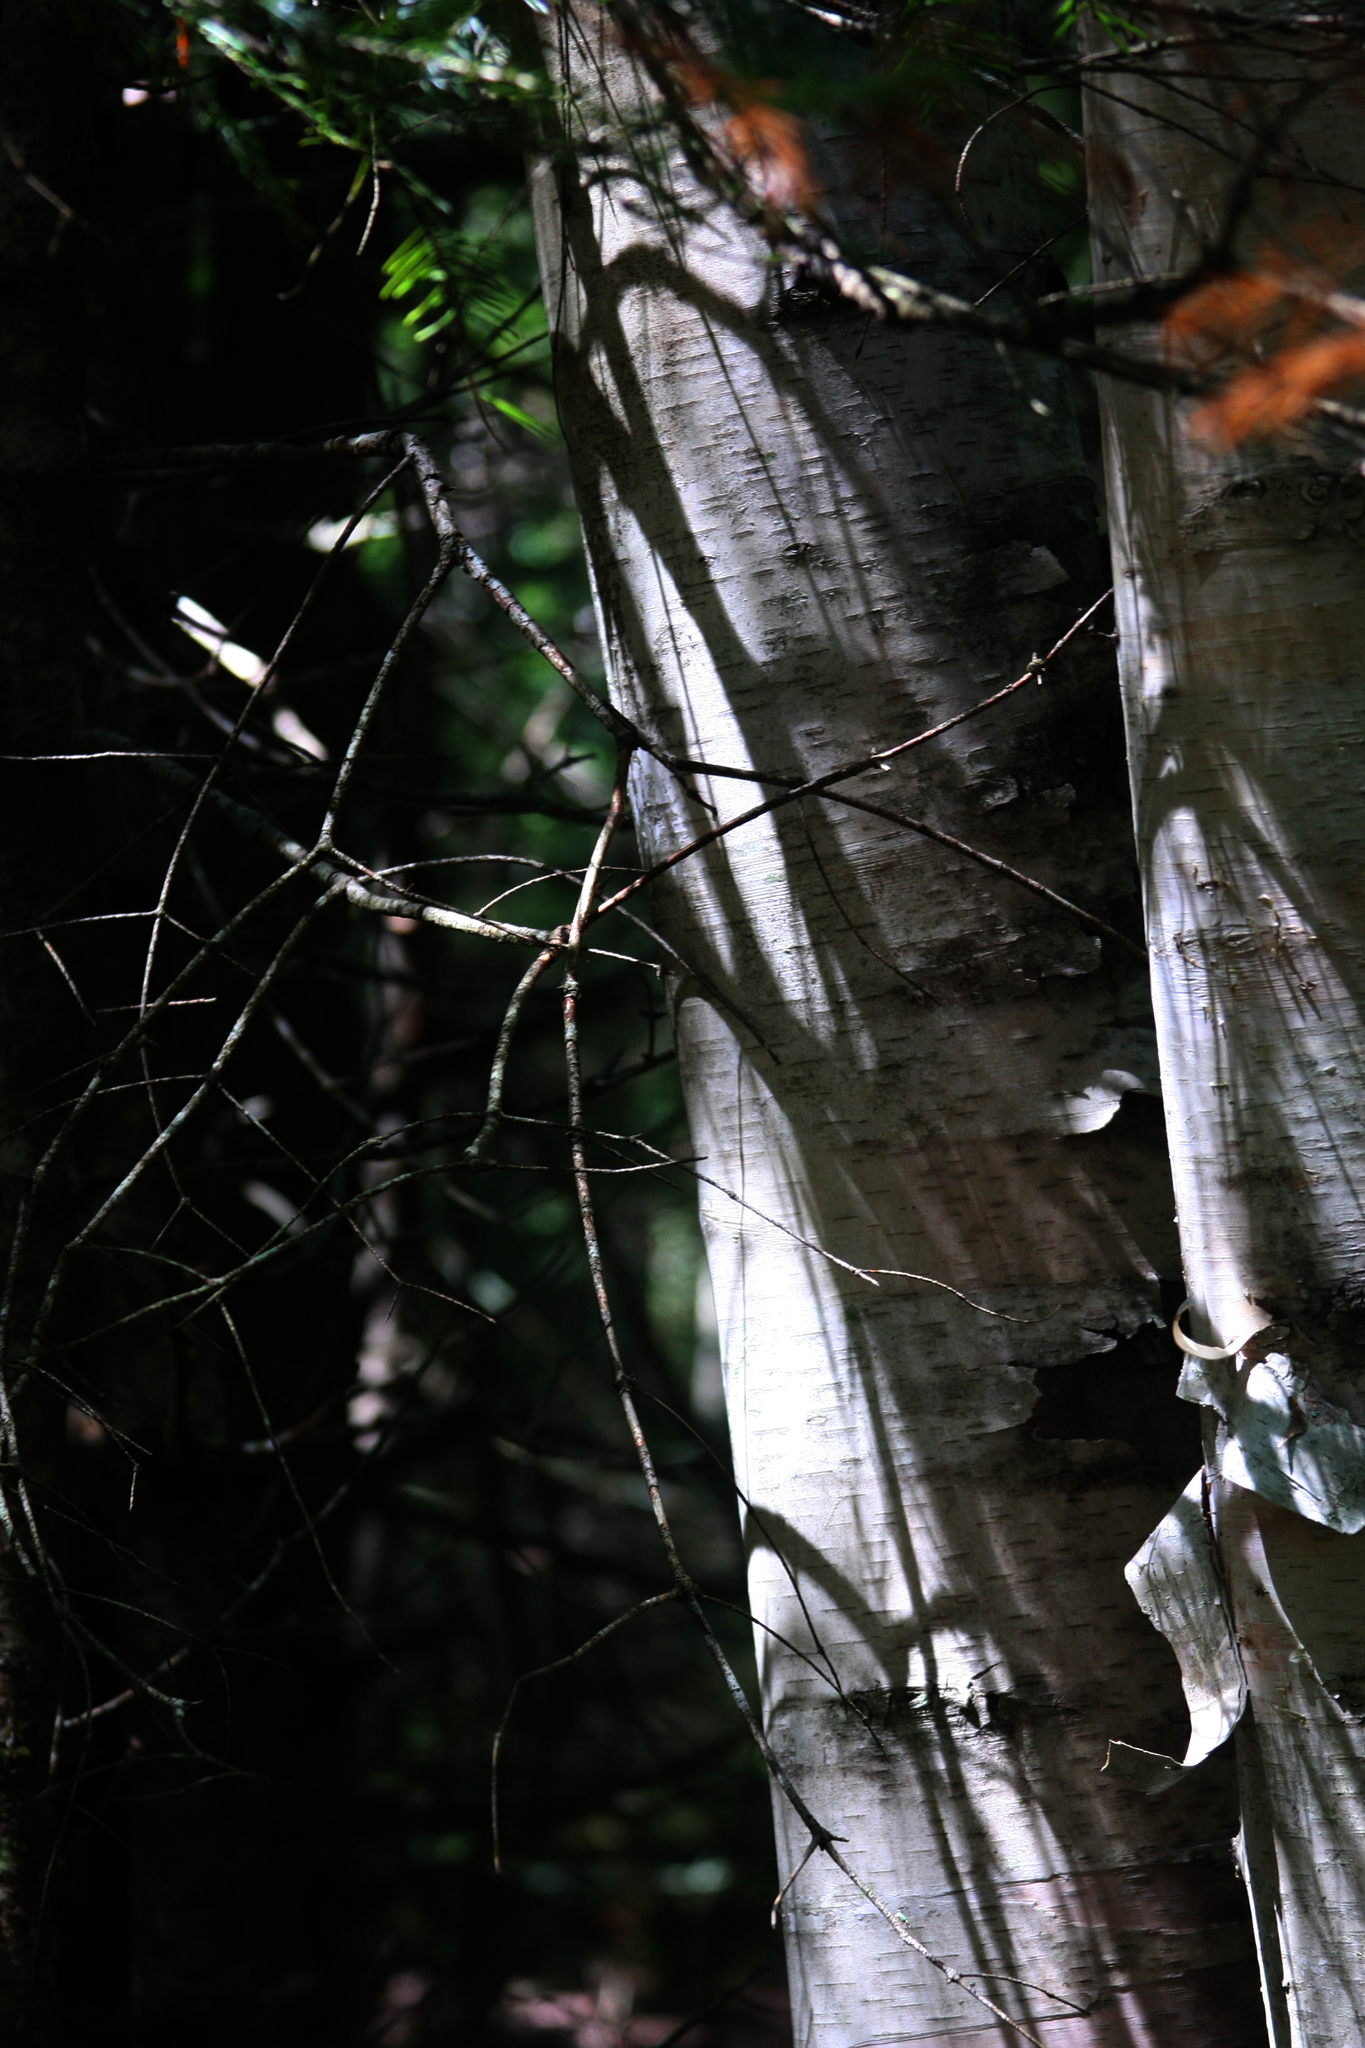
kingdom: Plantae
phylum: Tracheophyta
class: Magnoliopsida
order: Fagales
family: Betulaceae
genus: Betula
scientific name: Betula papyrifera
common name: Paper birch
